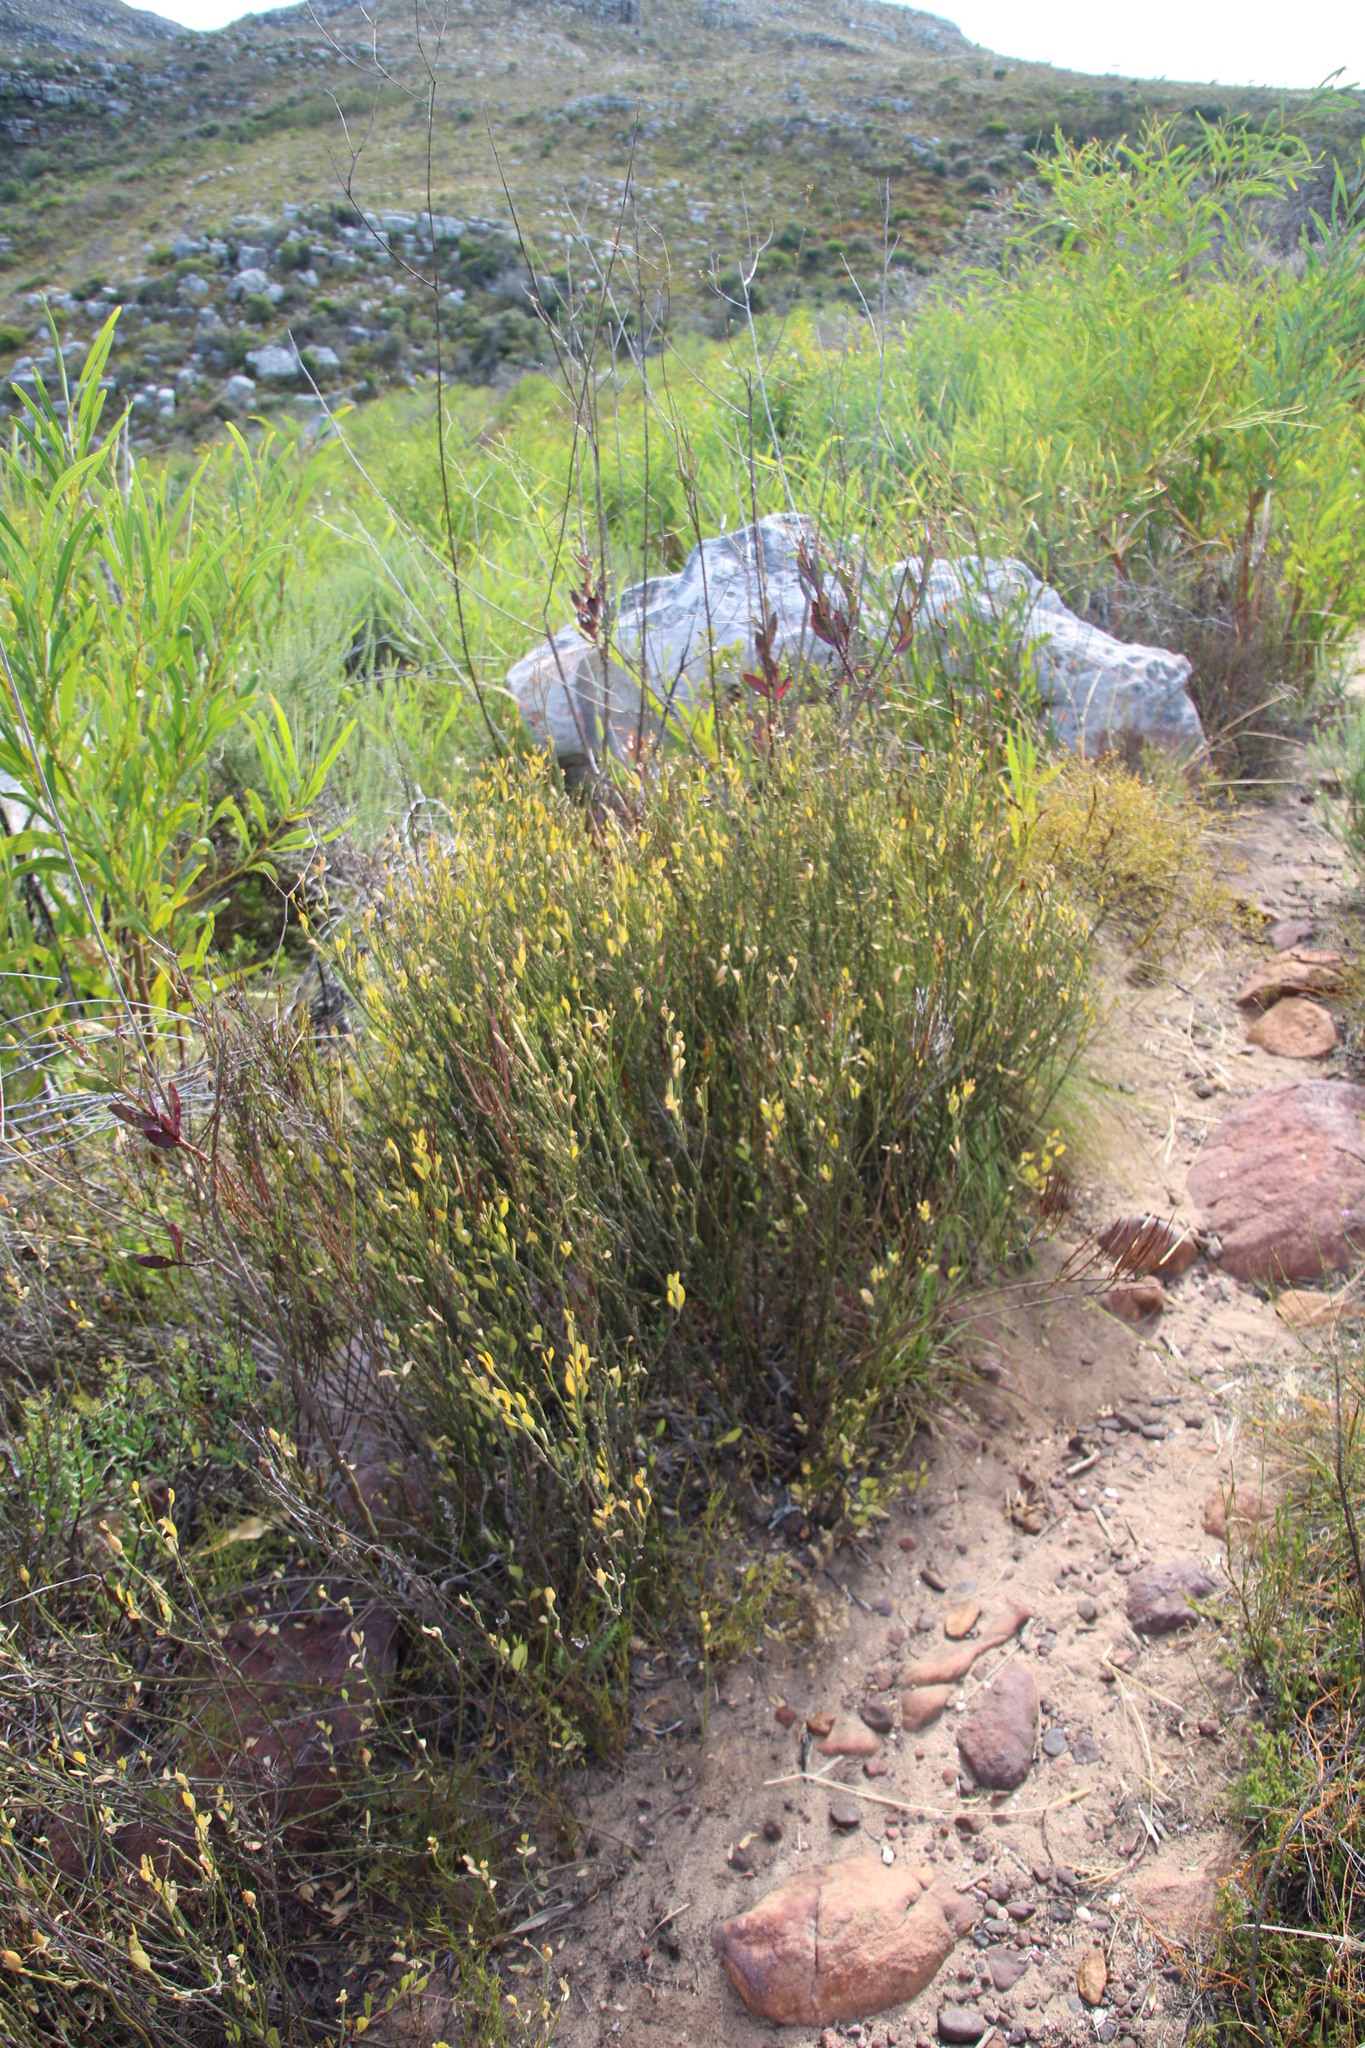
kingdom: Plantae
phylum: Tracheophyta
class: Magnoliopsida
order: Solanales
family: Montiniaceae
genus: Montinia
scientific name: Montinia caryophyllacea
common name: Wild clove-bush
